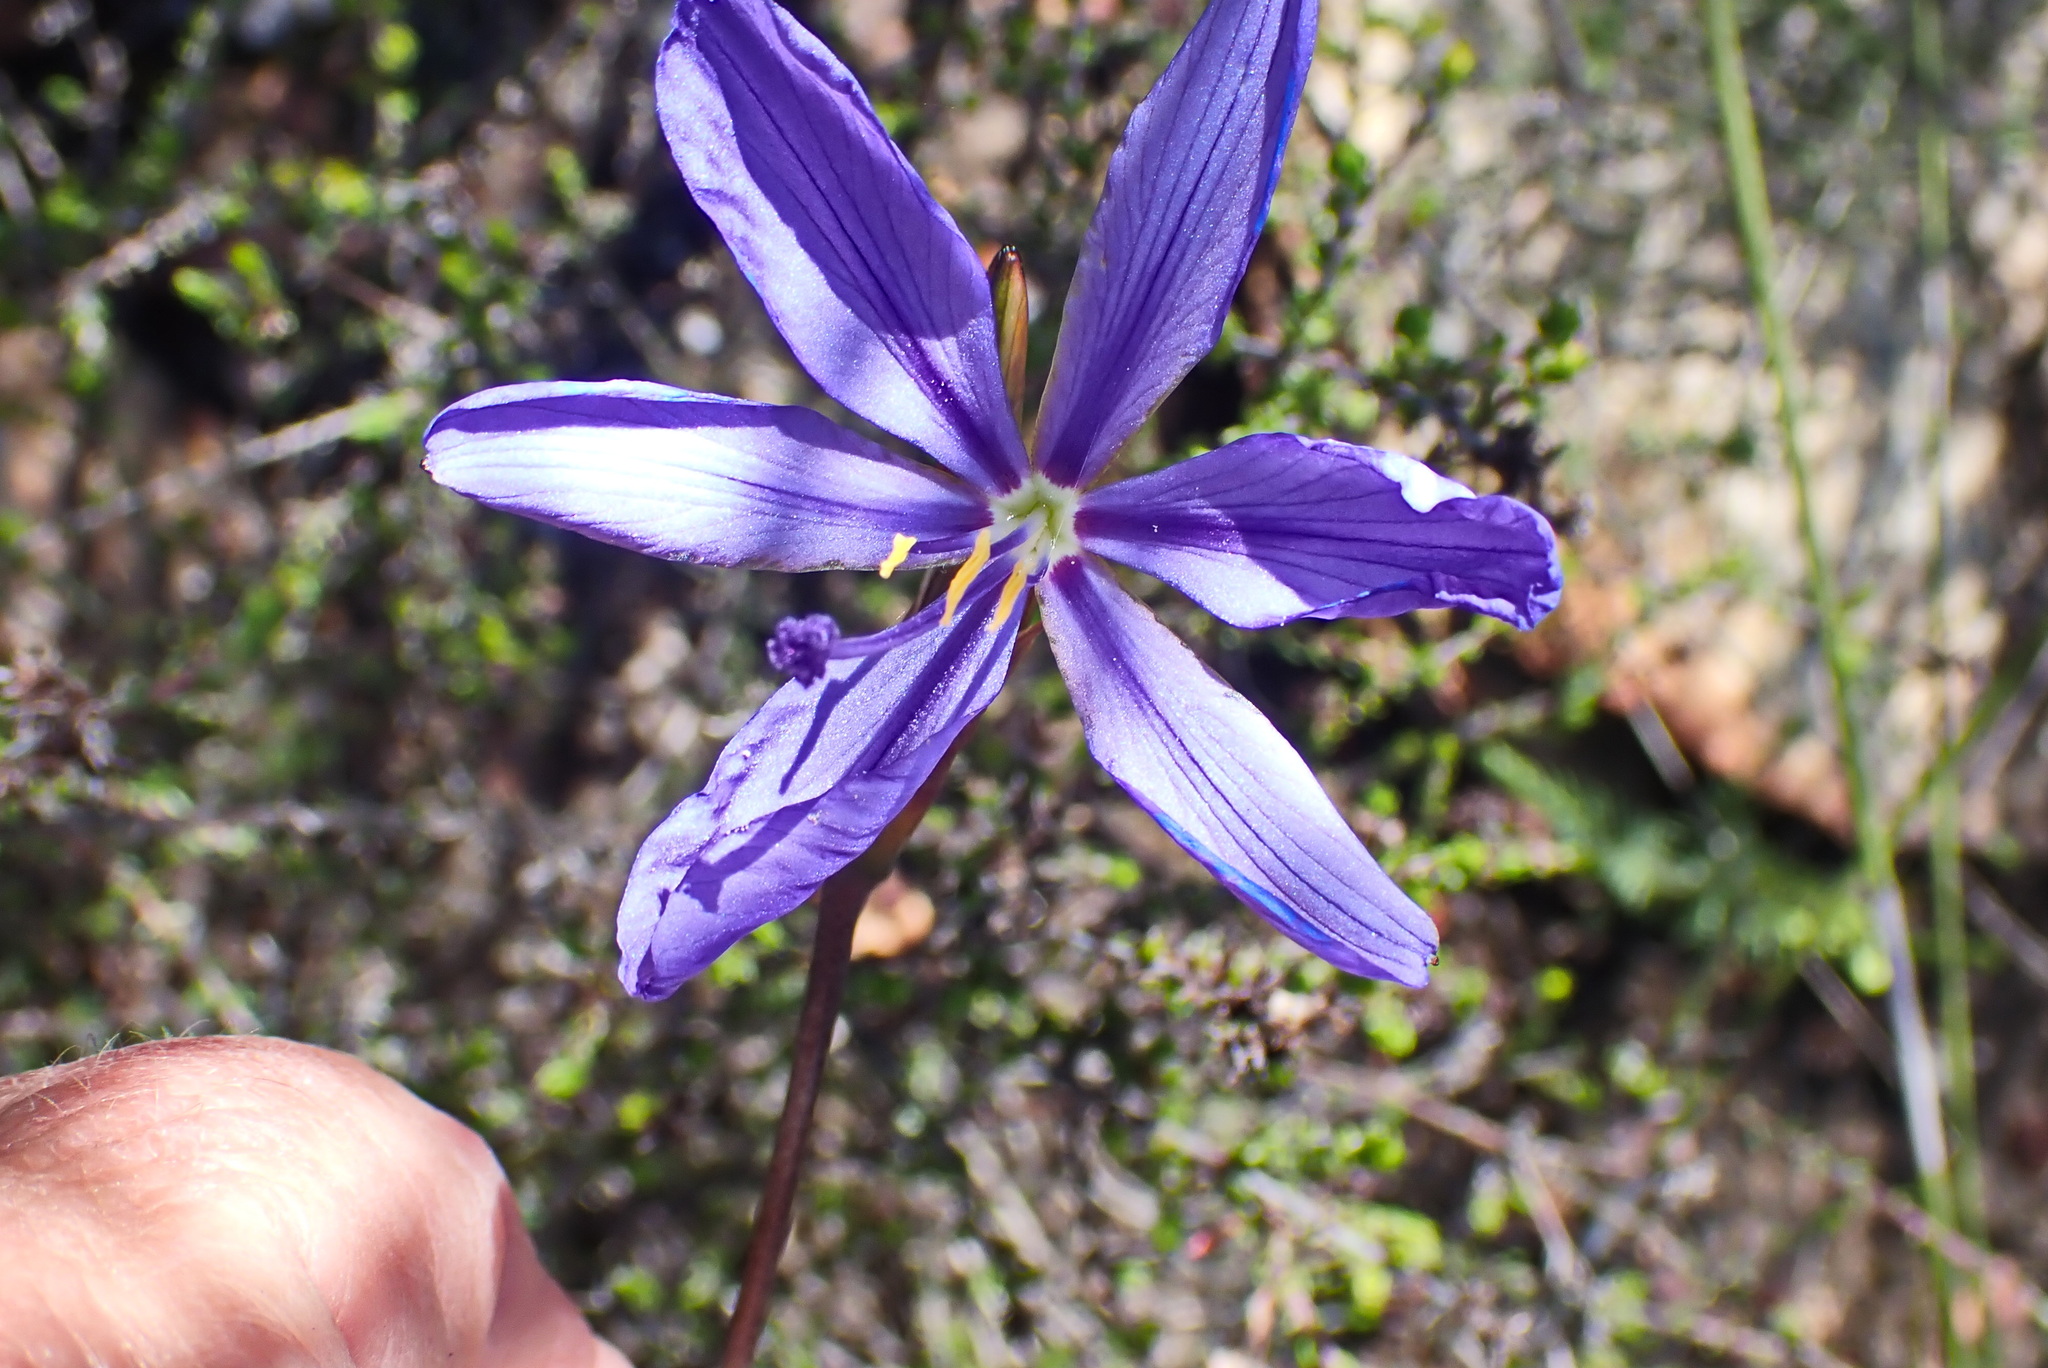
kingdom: Plantae
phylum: Tracheophyta
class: Liliopsida
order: Asparagales
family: Iridaceae
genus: Aristea
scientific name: Aristea simplex
